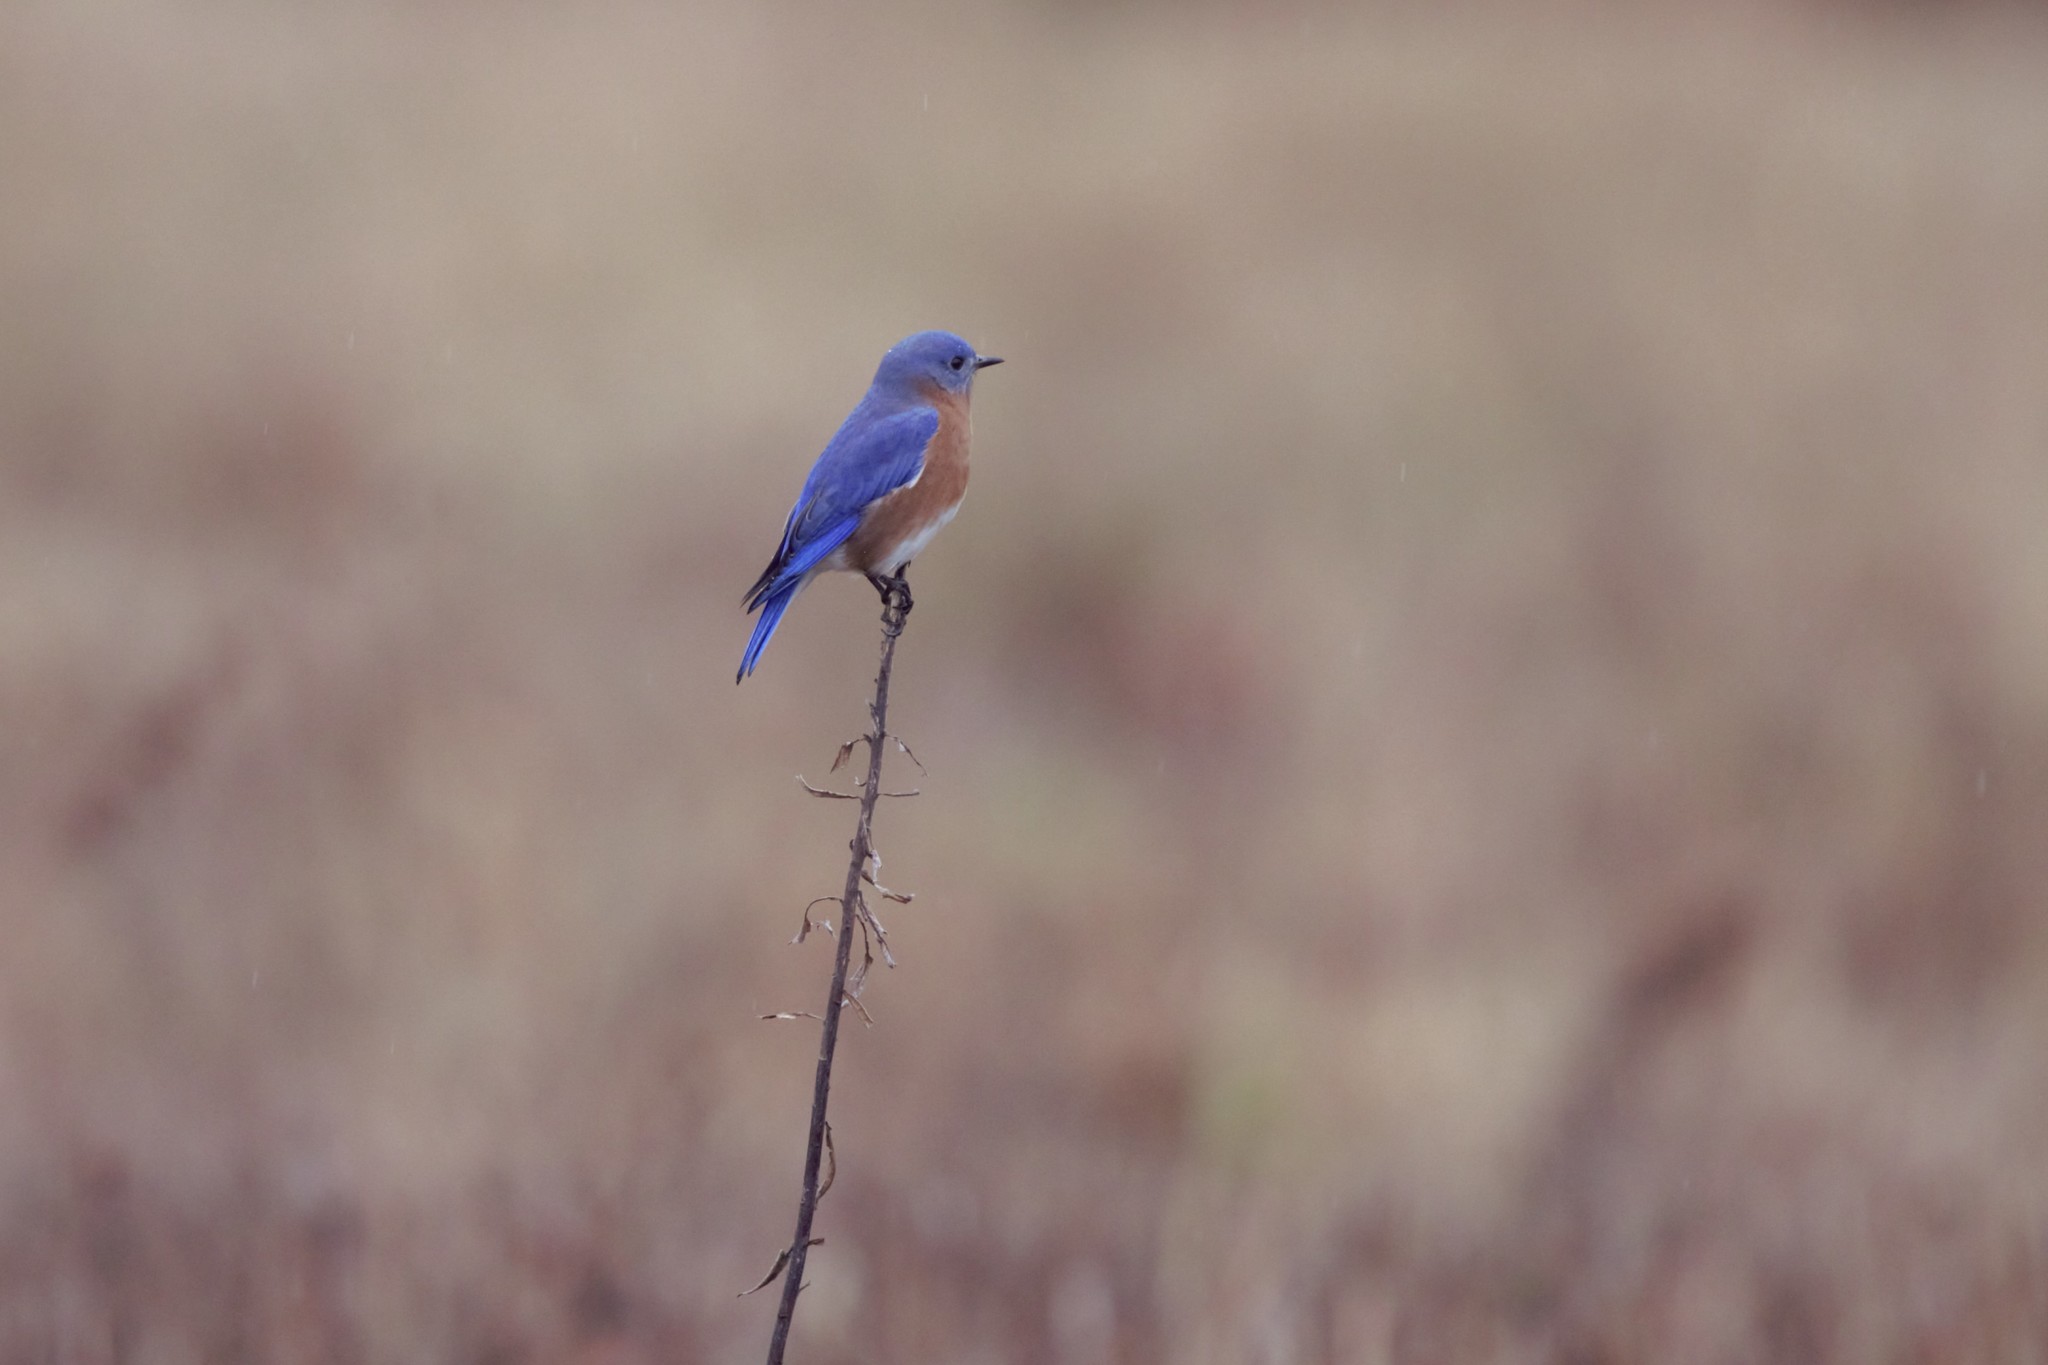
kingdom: Animalia
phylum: Chordata
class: Aves
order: Passeriformes
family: Turdidae
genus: Sialia
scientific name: Sialia sialis
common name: Eastern bluebird
